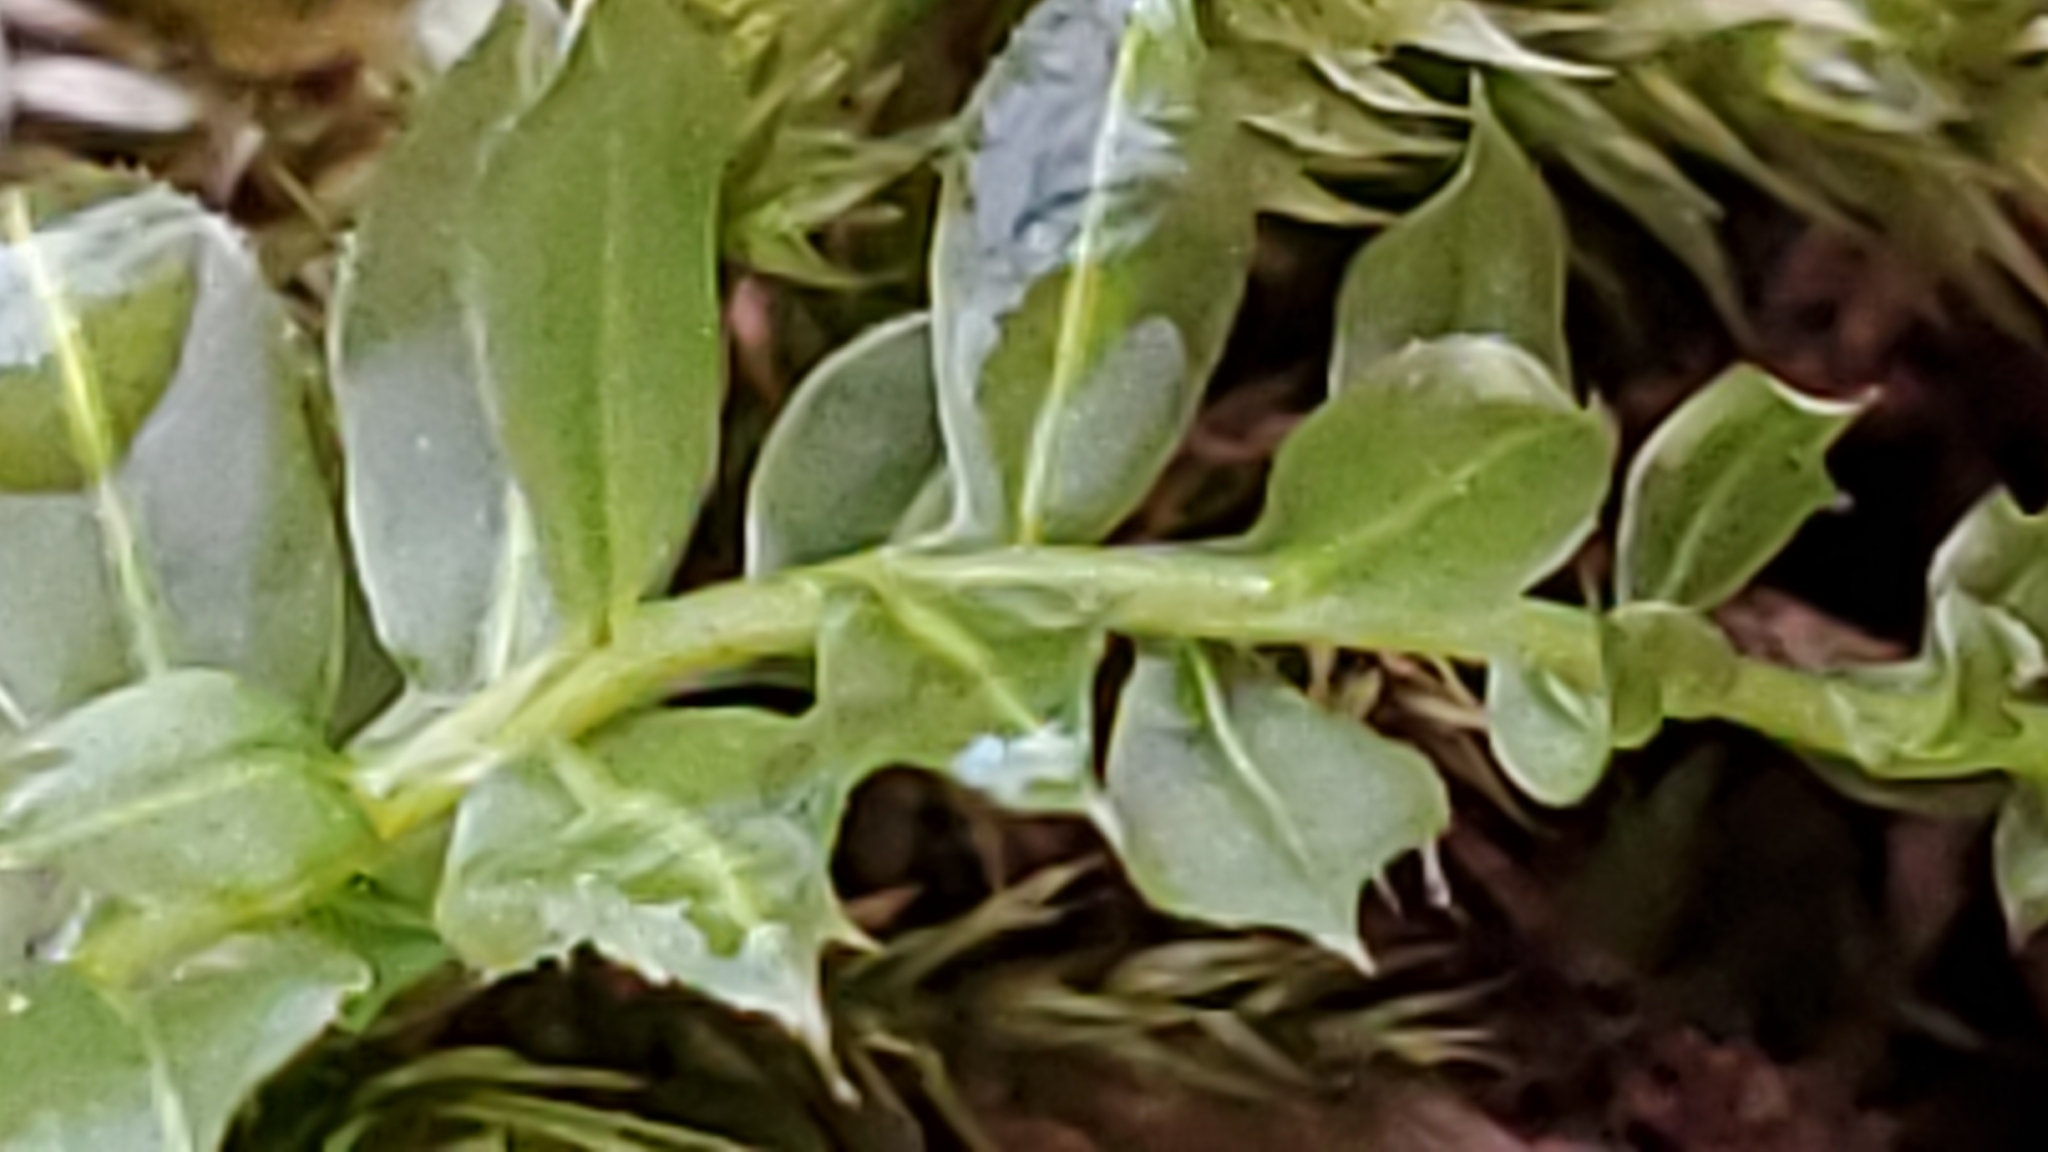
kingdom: Plantae
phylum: Bryophyta
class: Bryopsida
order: Bryales
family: Mniaceae
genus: Plagiomnium
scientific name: Plagiomnium cuspidatum
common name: Woodsy leafy moss
